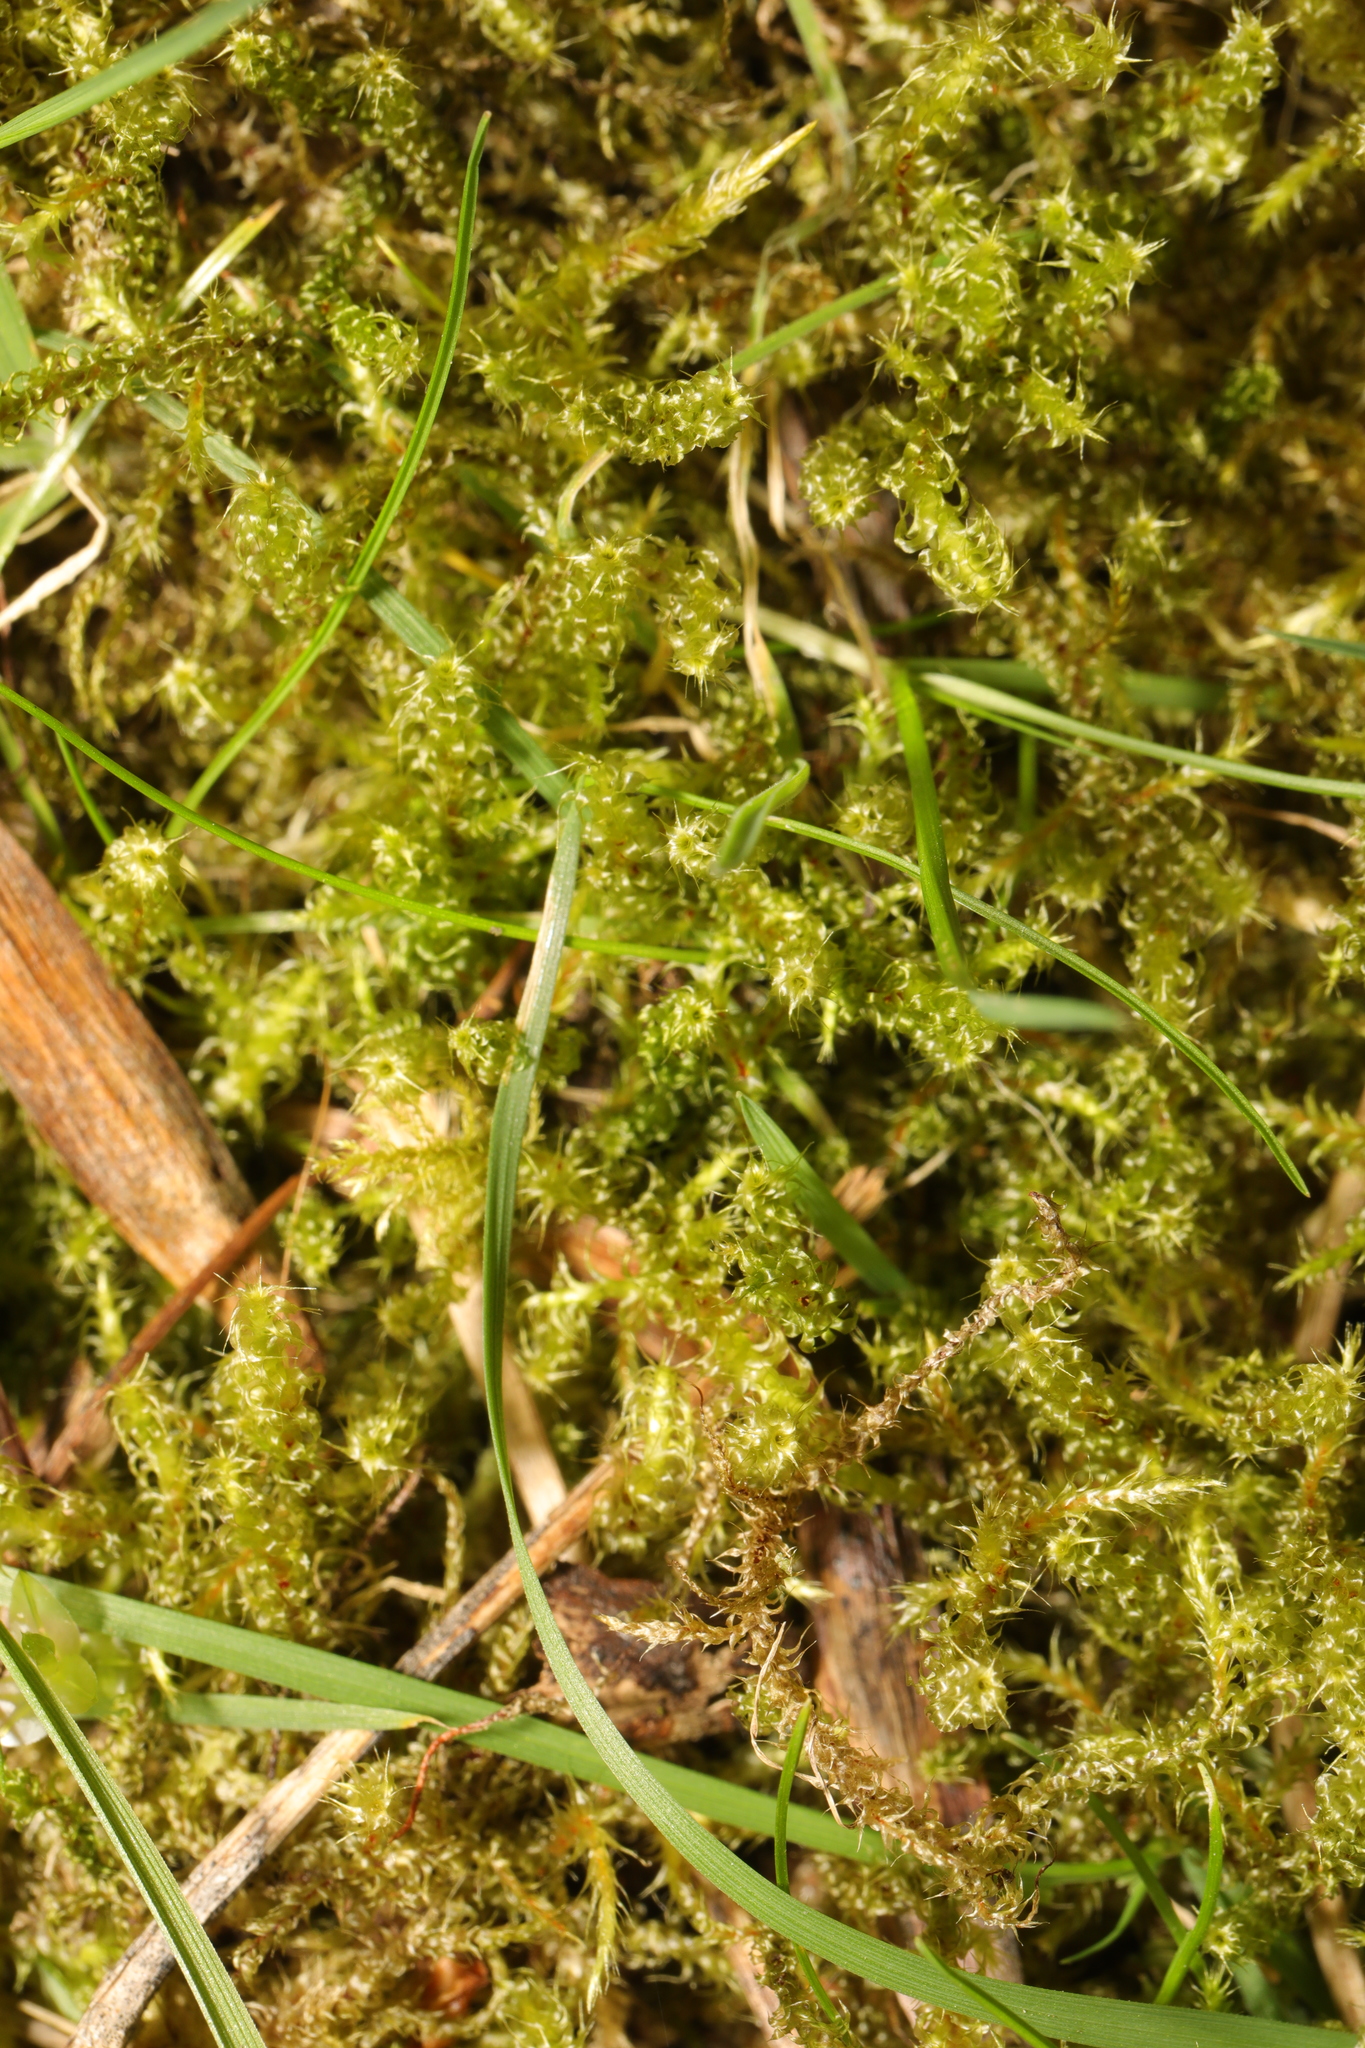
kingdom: Plantae
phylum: Bryophyta
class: Bryopsida
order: Hypnales
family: Hylocomiaceae
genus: Rhytidiadelphus
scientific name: Rhytidiadelphus squarrosus
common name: Springy turf-moss
